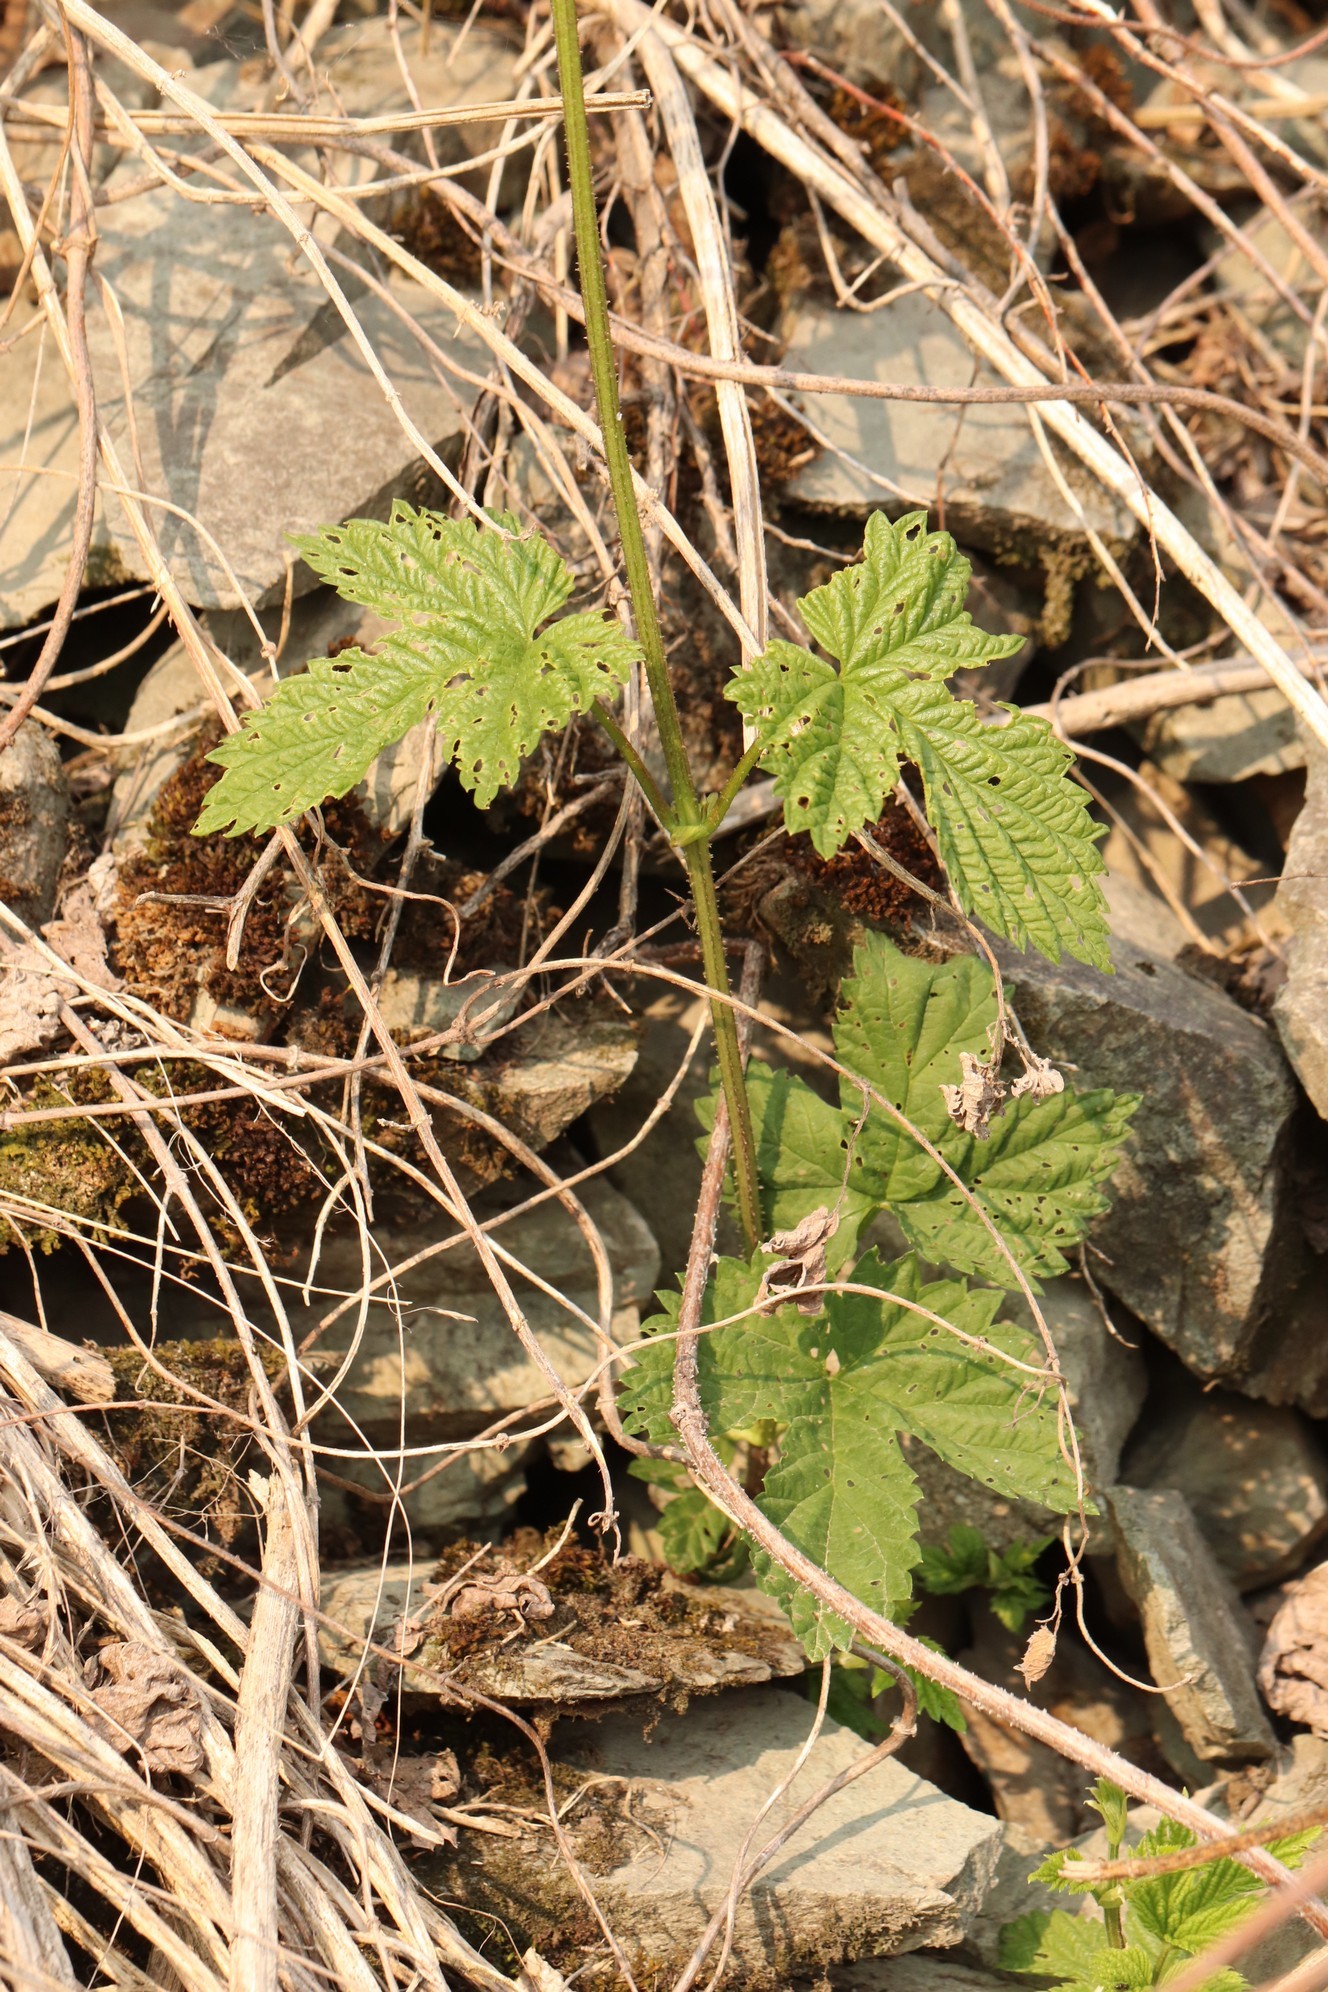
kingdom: Plantae
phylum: Tracheophyta
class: Magnoliopsida
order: Rosales
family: Cannabaceae
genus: Humulus
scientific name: Humulus lupulus
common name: Hop
